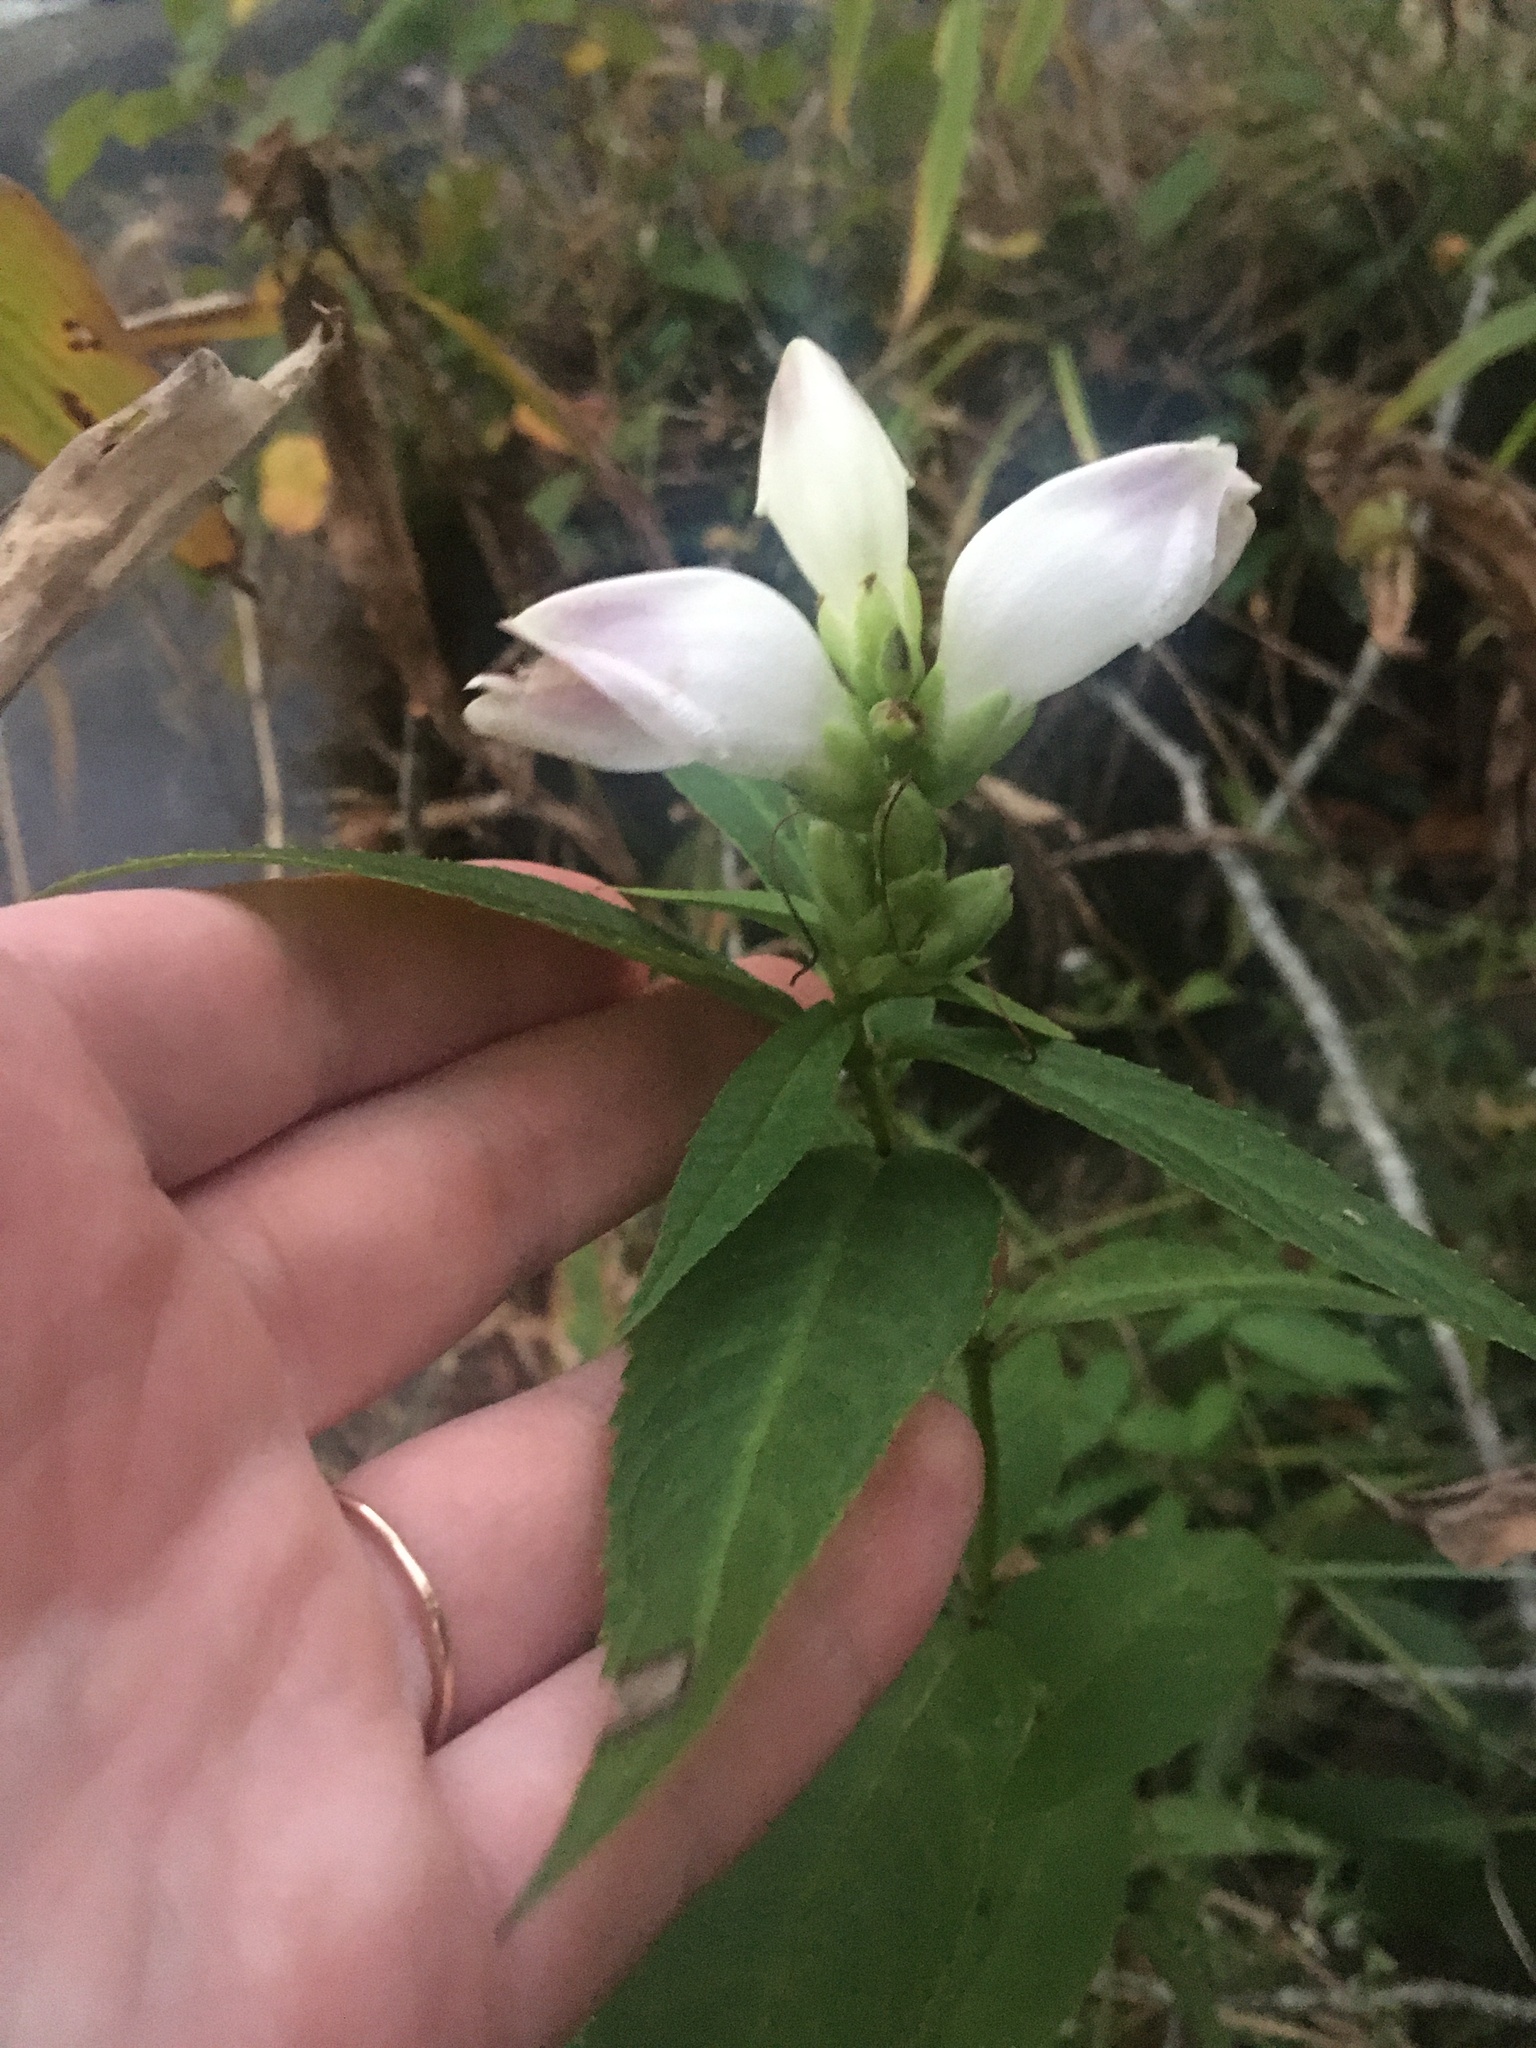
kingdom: Plantae
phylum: Tracheophyta
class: Magnoliopsida
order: Lamiales
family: Plantaginaceae
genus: Chelone
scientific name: Chelone glabra
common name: Snakehead
